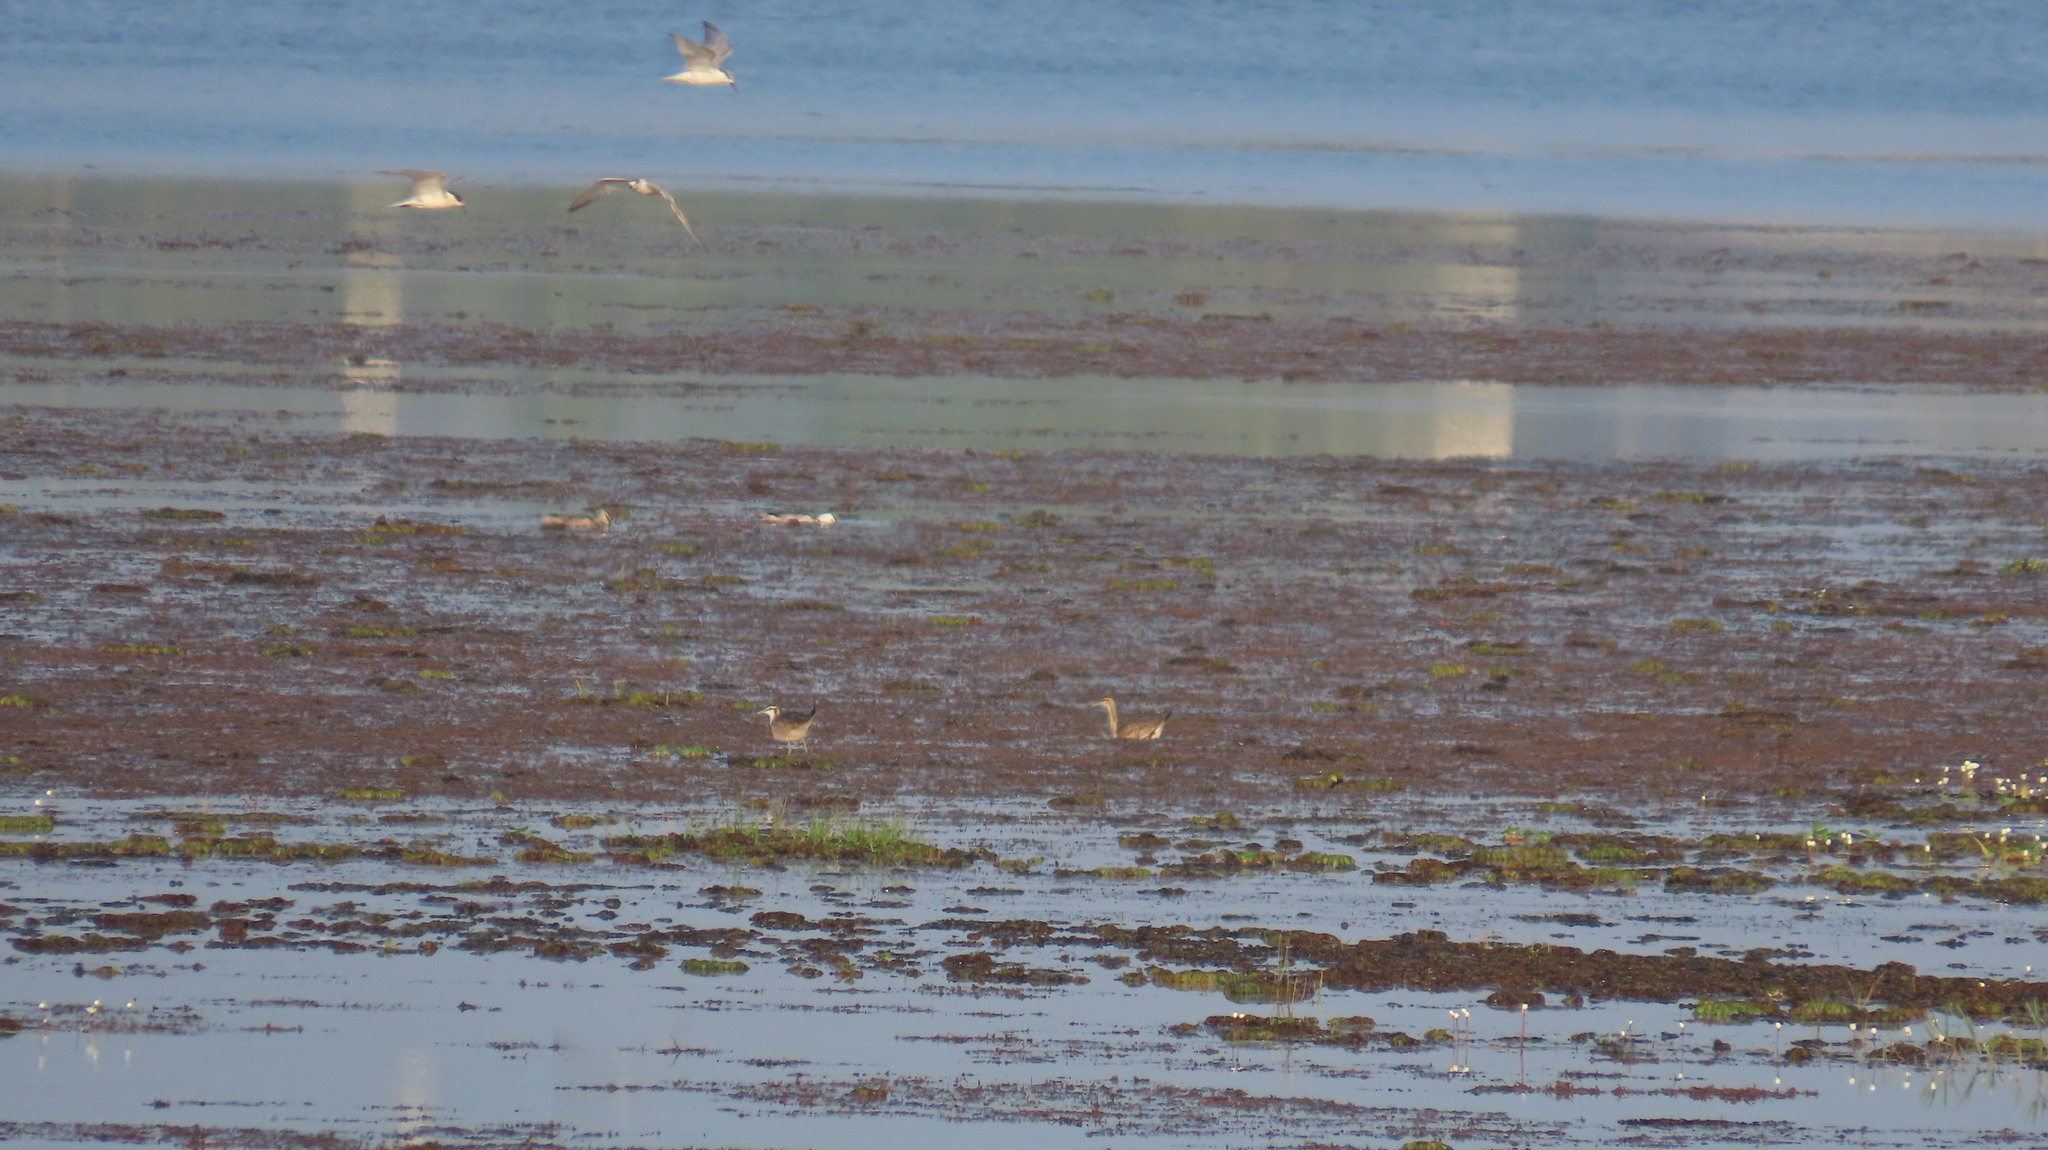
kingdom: Animalia
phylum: Chordata
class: Aves
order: Charadriiformes
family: Jacanidae
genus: Hydrophasianus
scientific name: Hydrophasianus chirurgus
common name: Pheasant-tailed jacana
